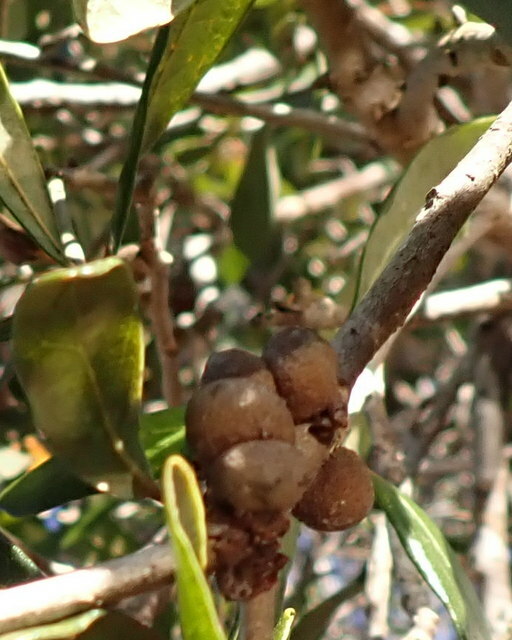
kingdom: Animalia
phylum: Arthropoda
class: Insecta
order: Hymenoptera
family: Cynipidae
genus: Disholcaspis
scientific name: Disholcaspis
